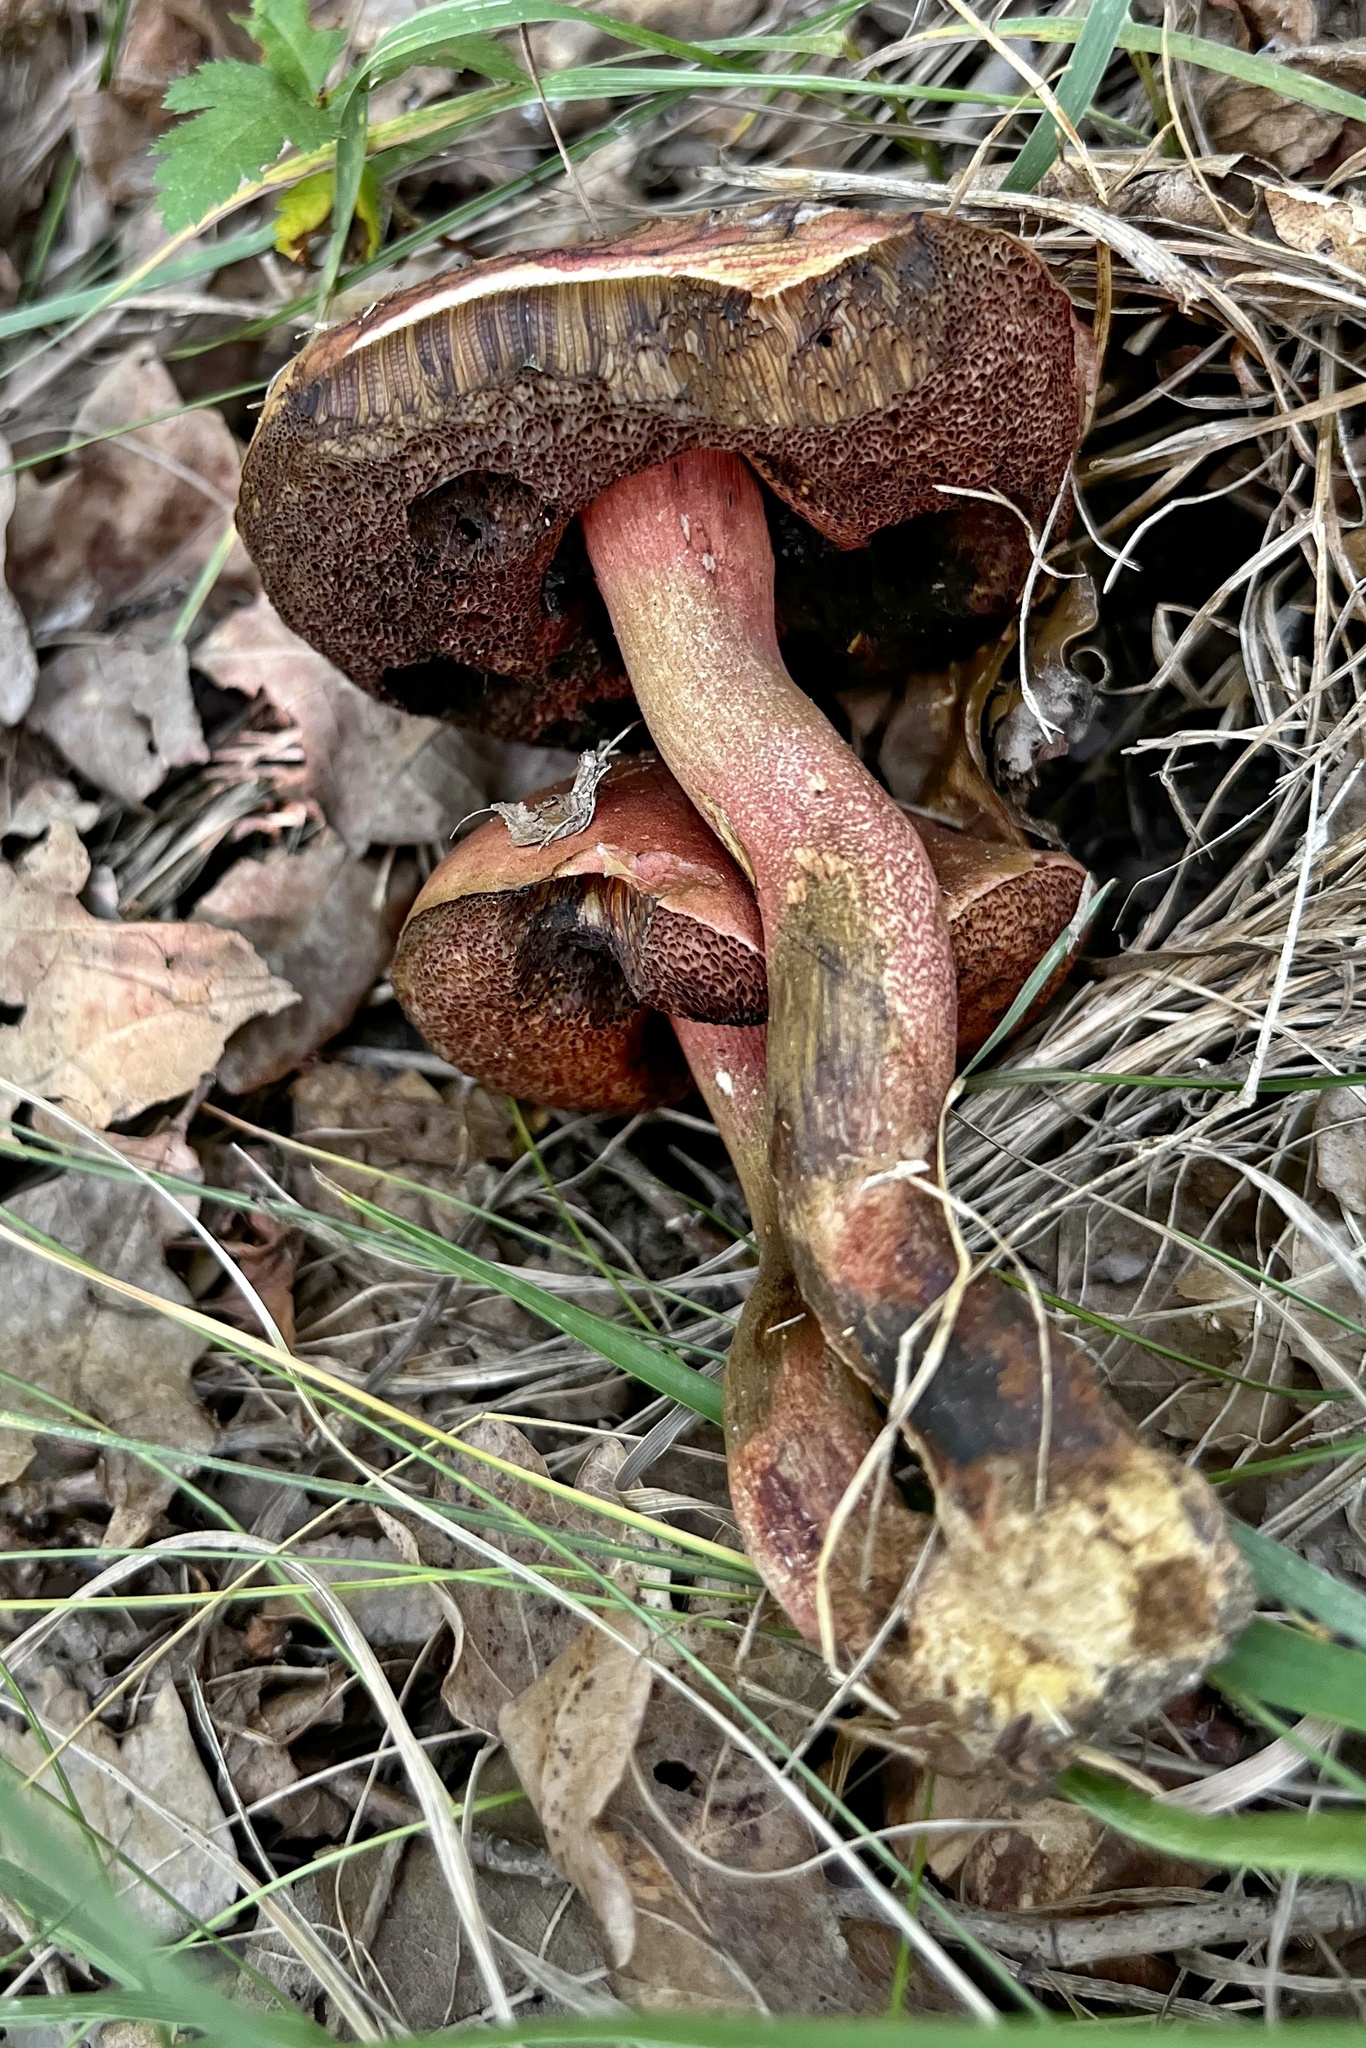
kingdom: Fungi
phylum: Basidiomycota
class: Agaricomycetes
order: Boletales
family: Boletaceae
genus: Neoboletus
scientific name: Neoboletus luridiformis
